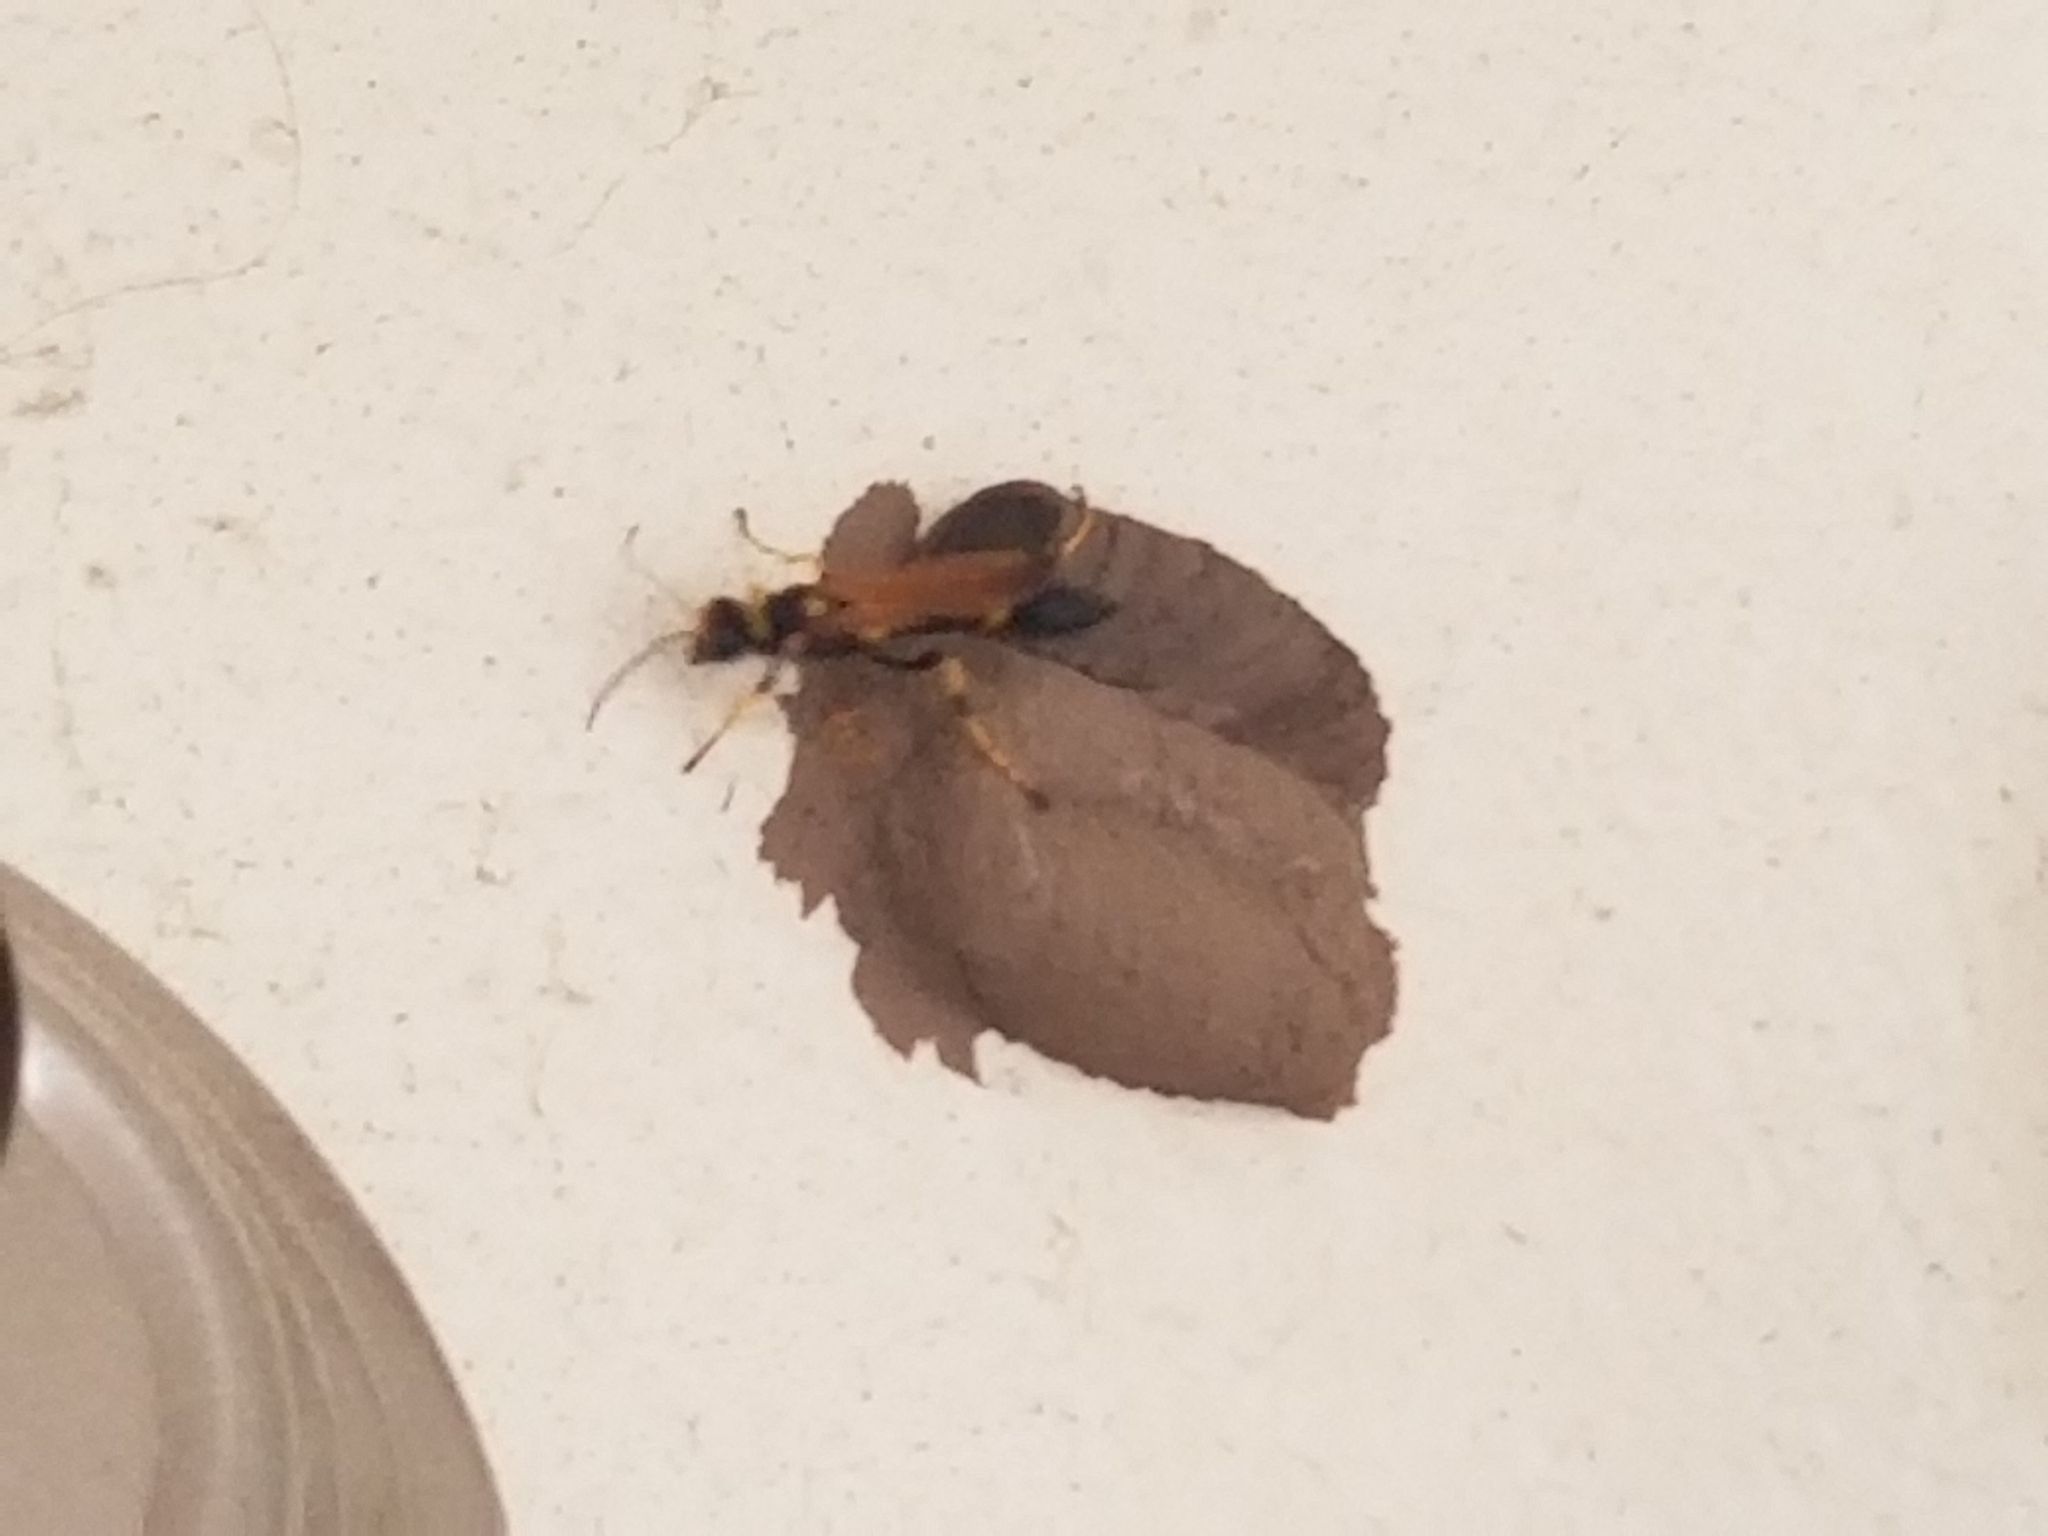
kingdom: Animalia
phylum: Arthropoda
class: Insecta
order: Hymenoptera
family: Sphecidae
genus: Sceliphron
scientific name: Sceliphron caementarium
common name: Mud dauber
